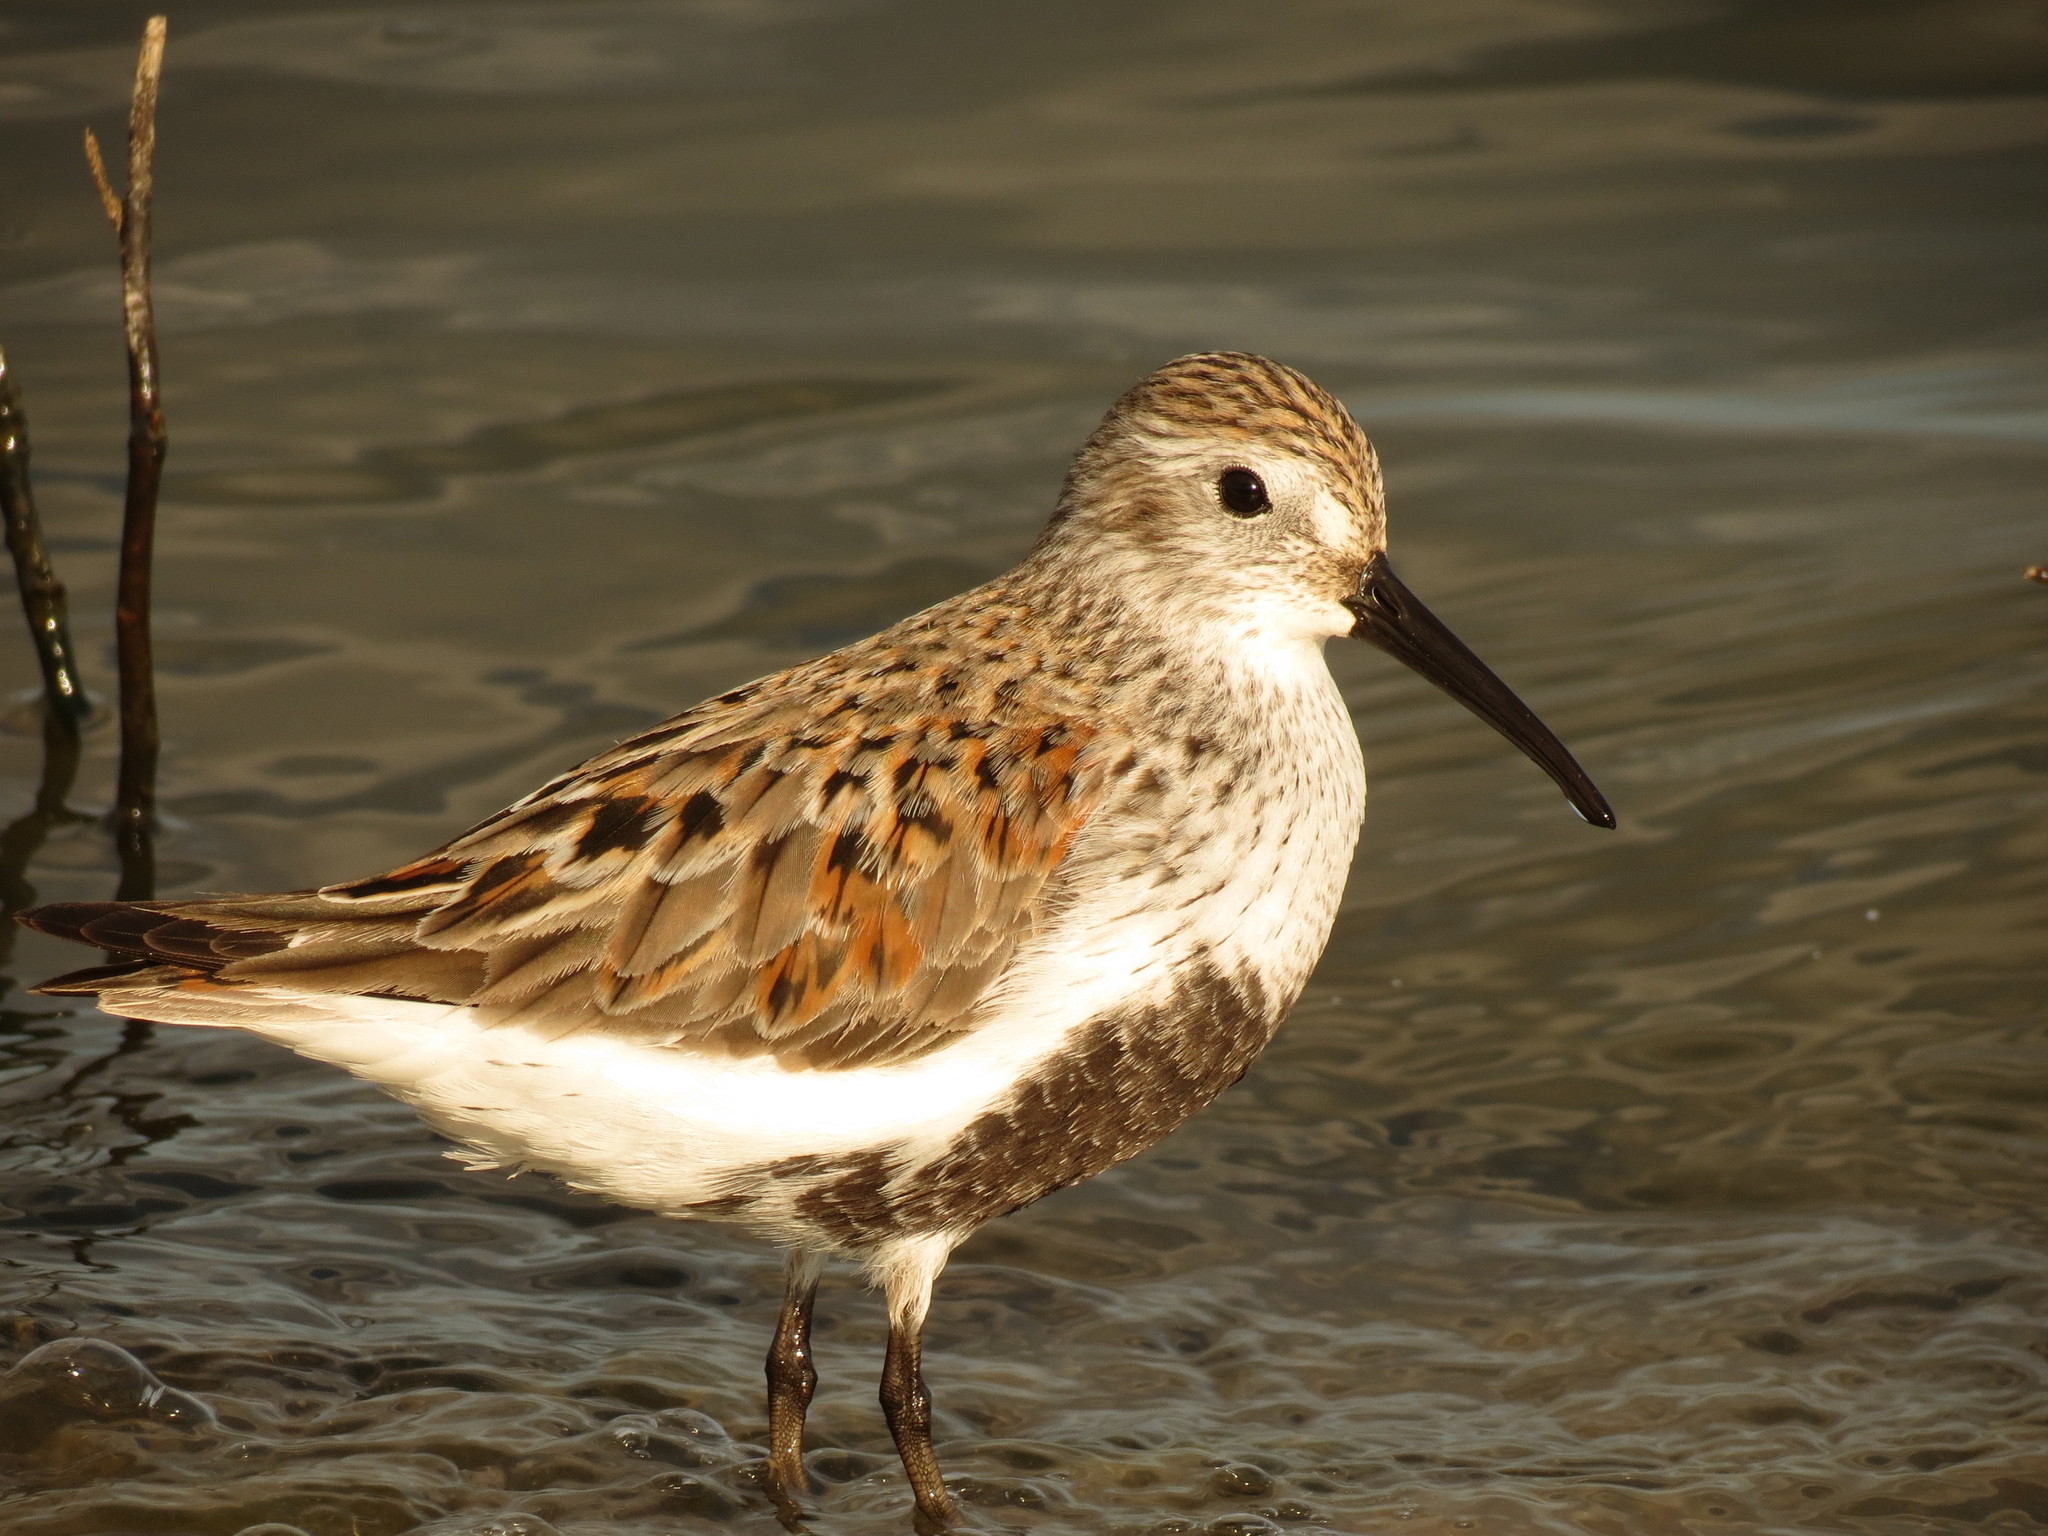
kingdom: Animalia
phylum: Chordata
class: Aves
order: Charadriiformes
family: Scolopacidae
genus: Calidris
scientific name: Calidris alpina
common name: Dunlin
